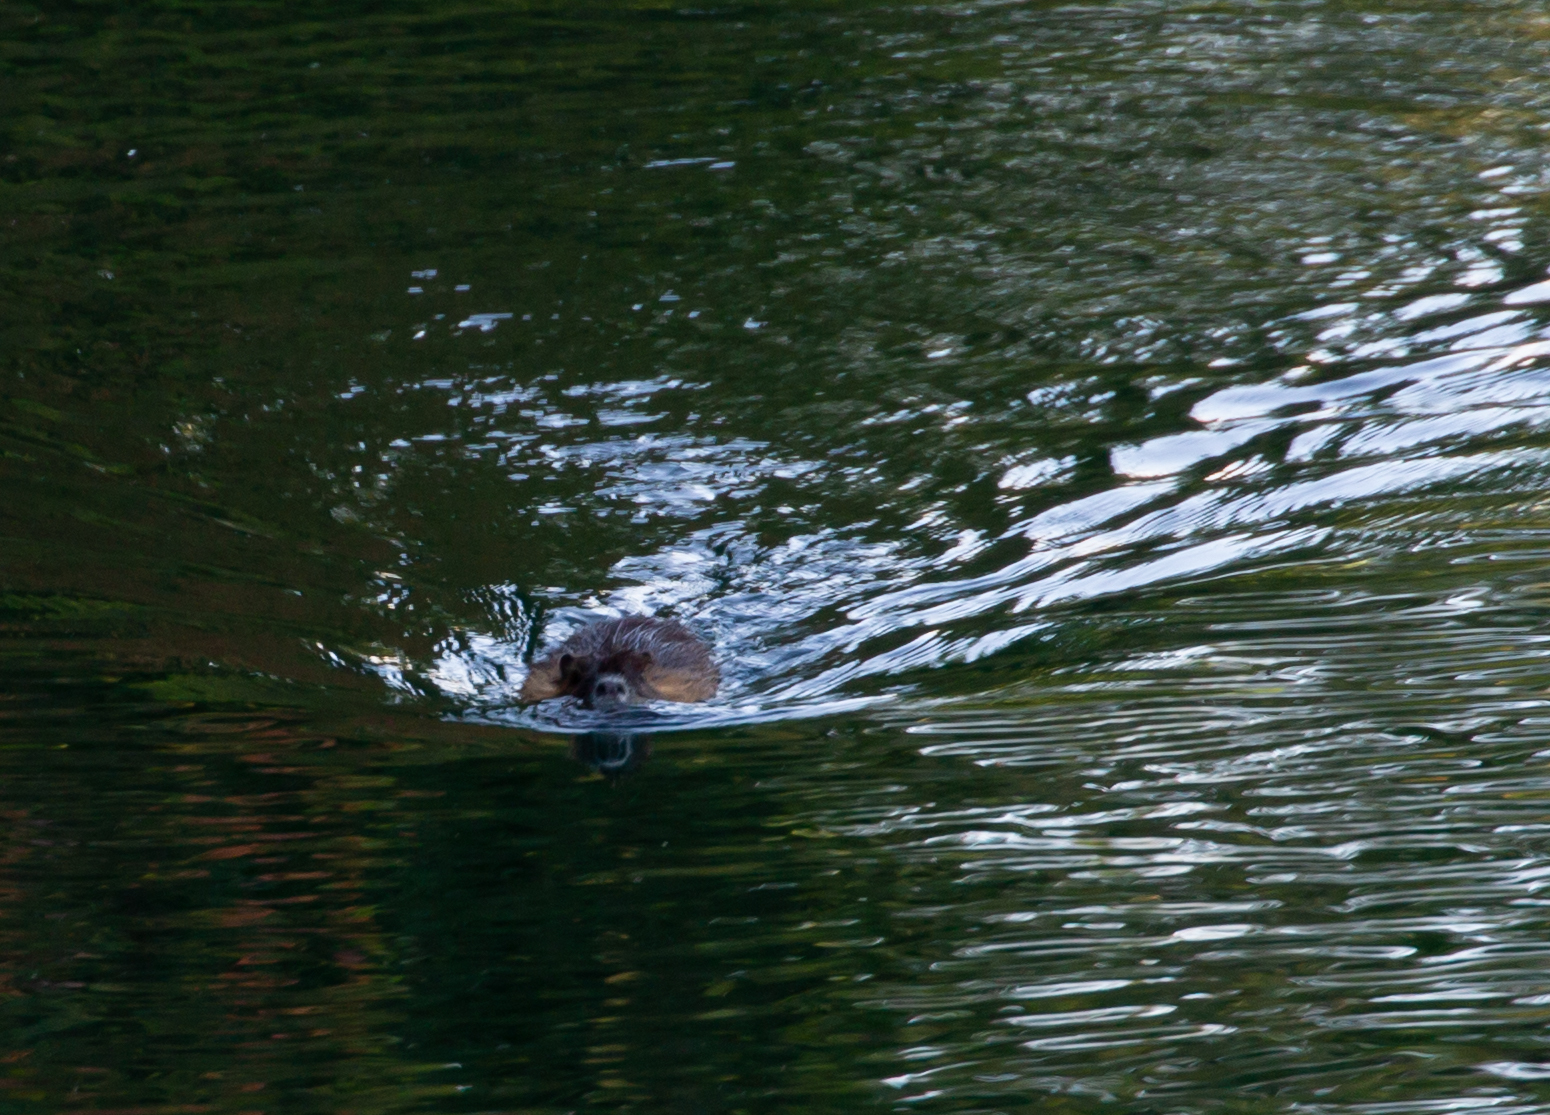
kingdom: Animalia
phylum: Chordata
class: Mammalia
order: Rodentia
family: Myocastoridae
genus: Myocastor
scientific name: Myocastor coypus
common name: Coypu
